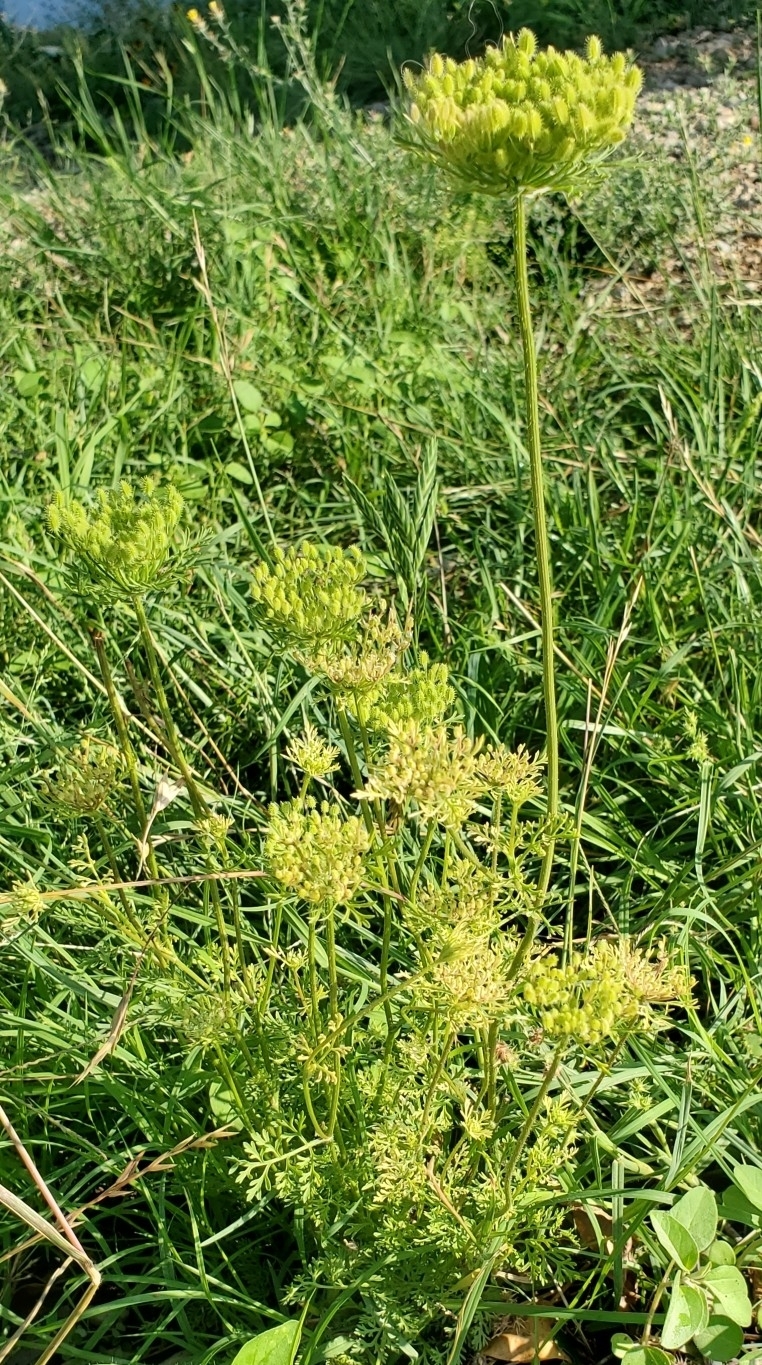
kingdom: Plantae
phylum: Tracheophyta
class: Magnoliopsida
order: Apiales
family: Apiaceae
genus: Daucus
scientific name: Daucus pusillus
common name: Southwest wild carrot
